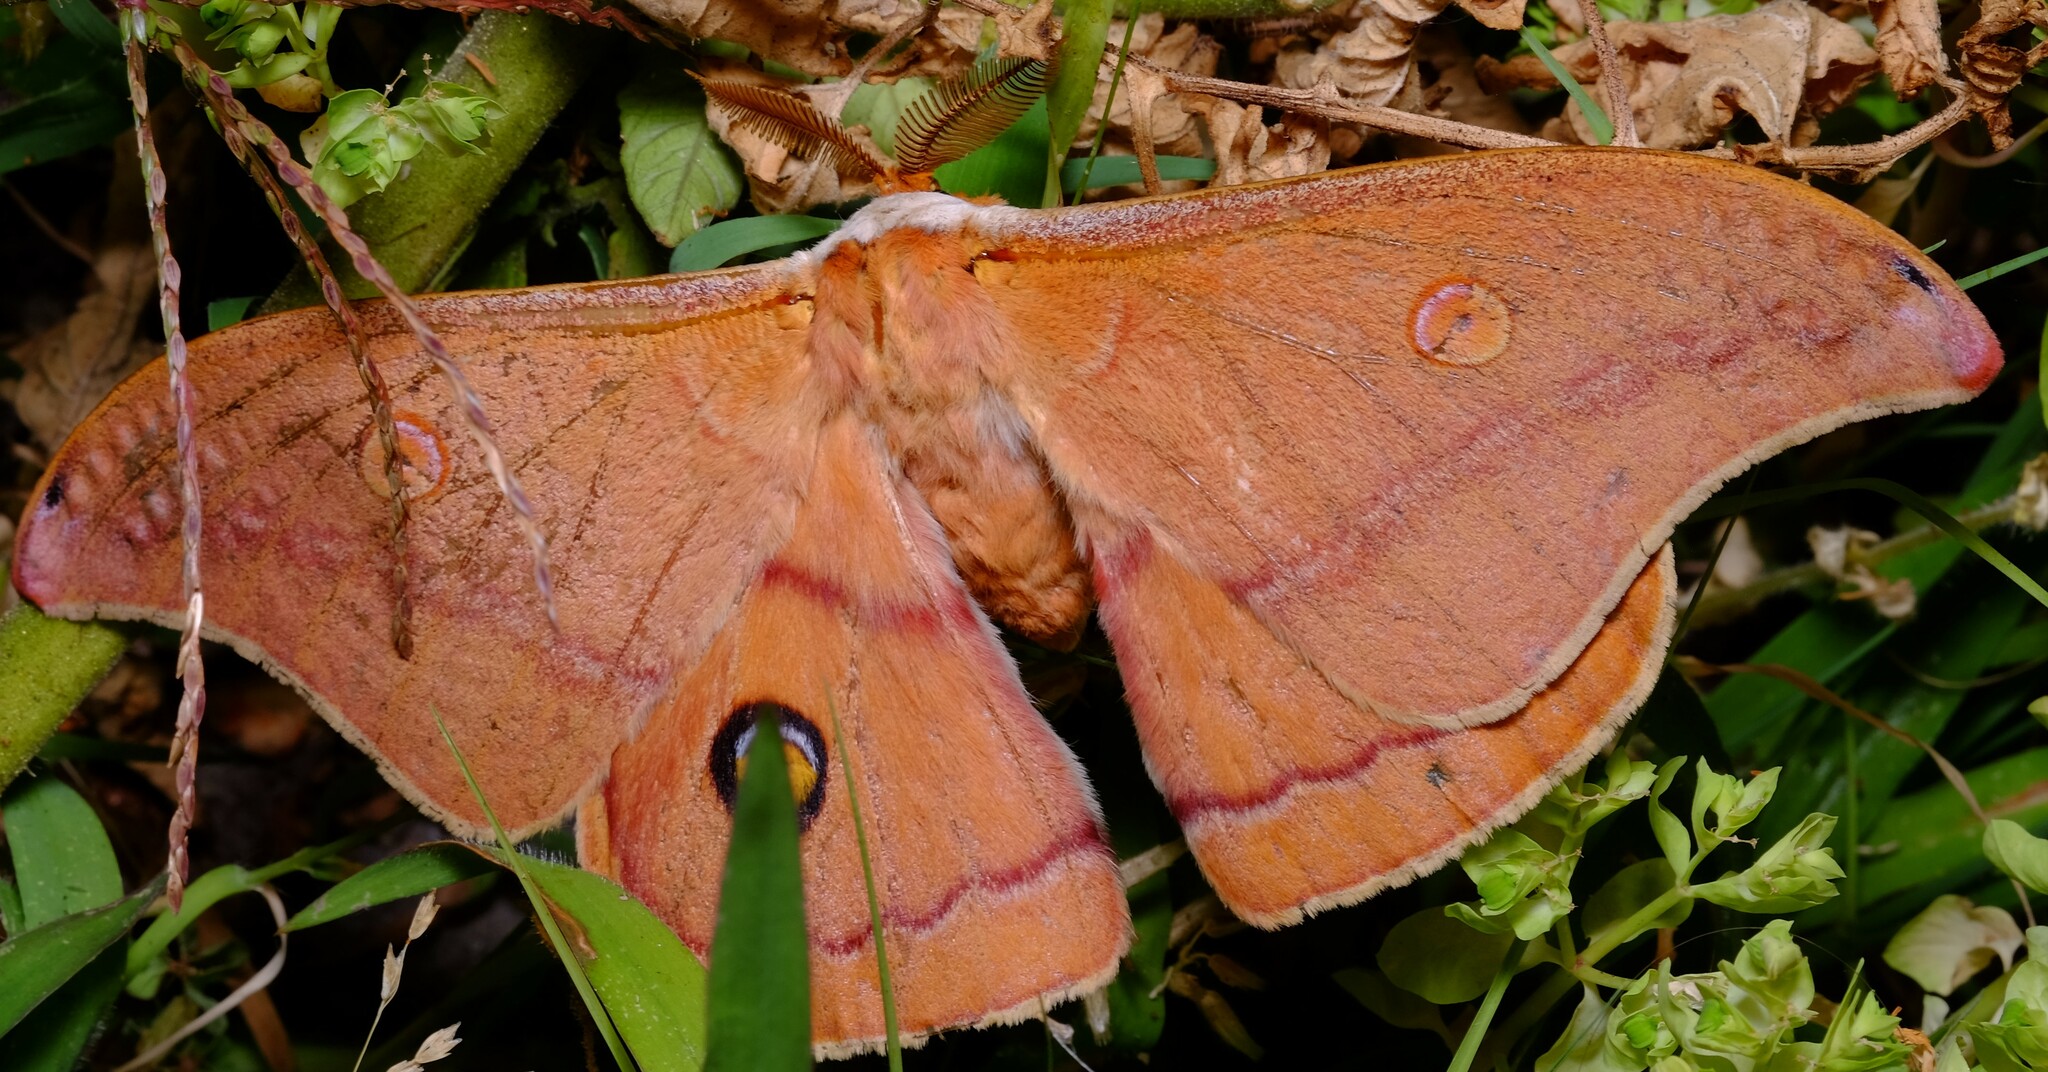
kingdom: Animalia
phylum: Arthropoda
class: Insecta
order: Lepidoptera
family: Saturniidae
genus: Opodiphthera
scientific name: Opodiphthera
